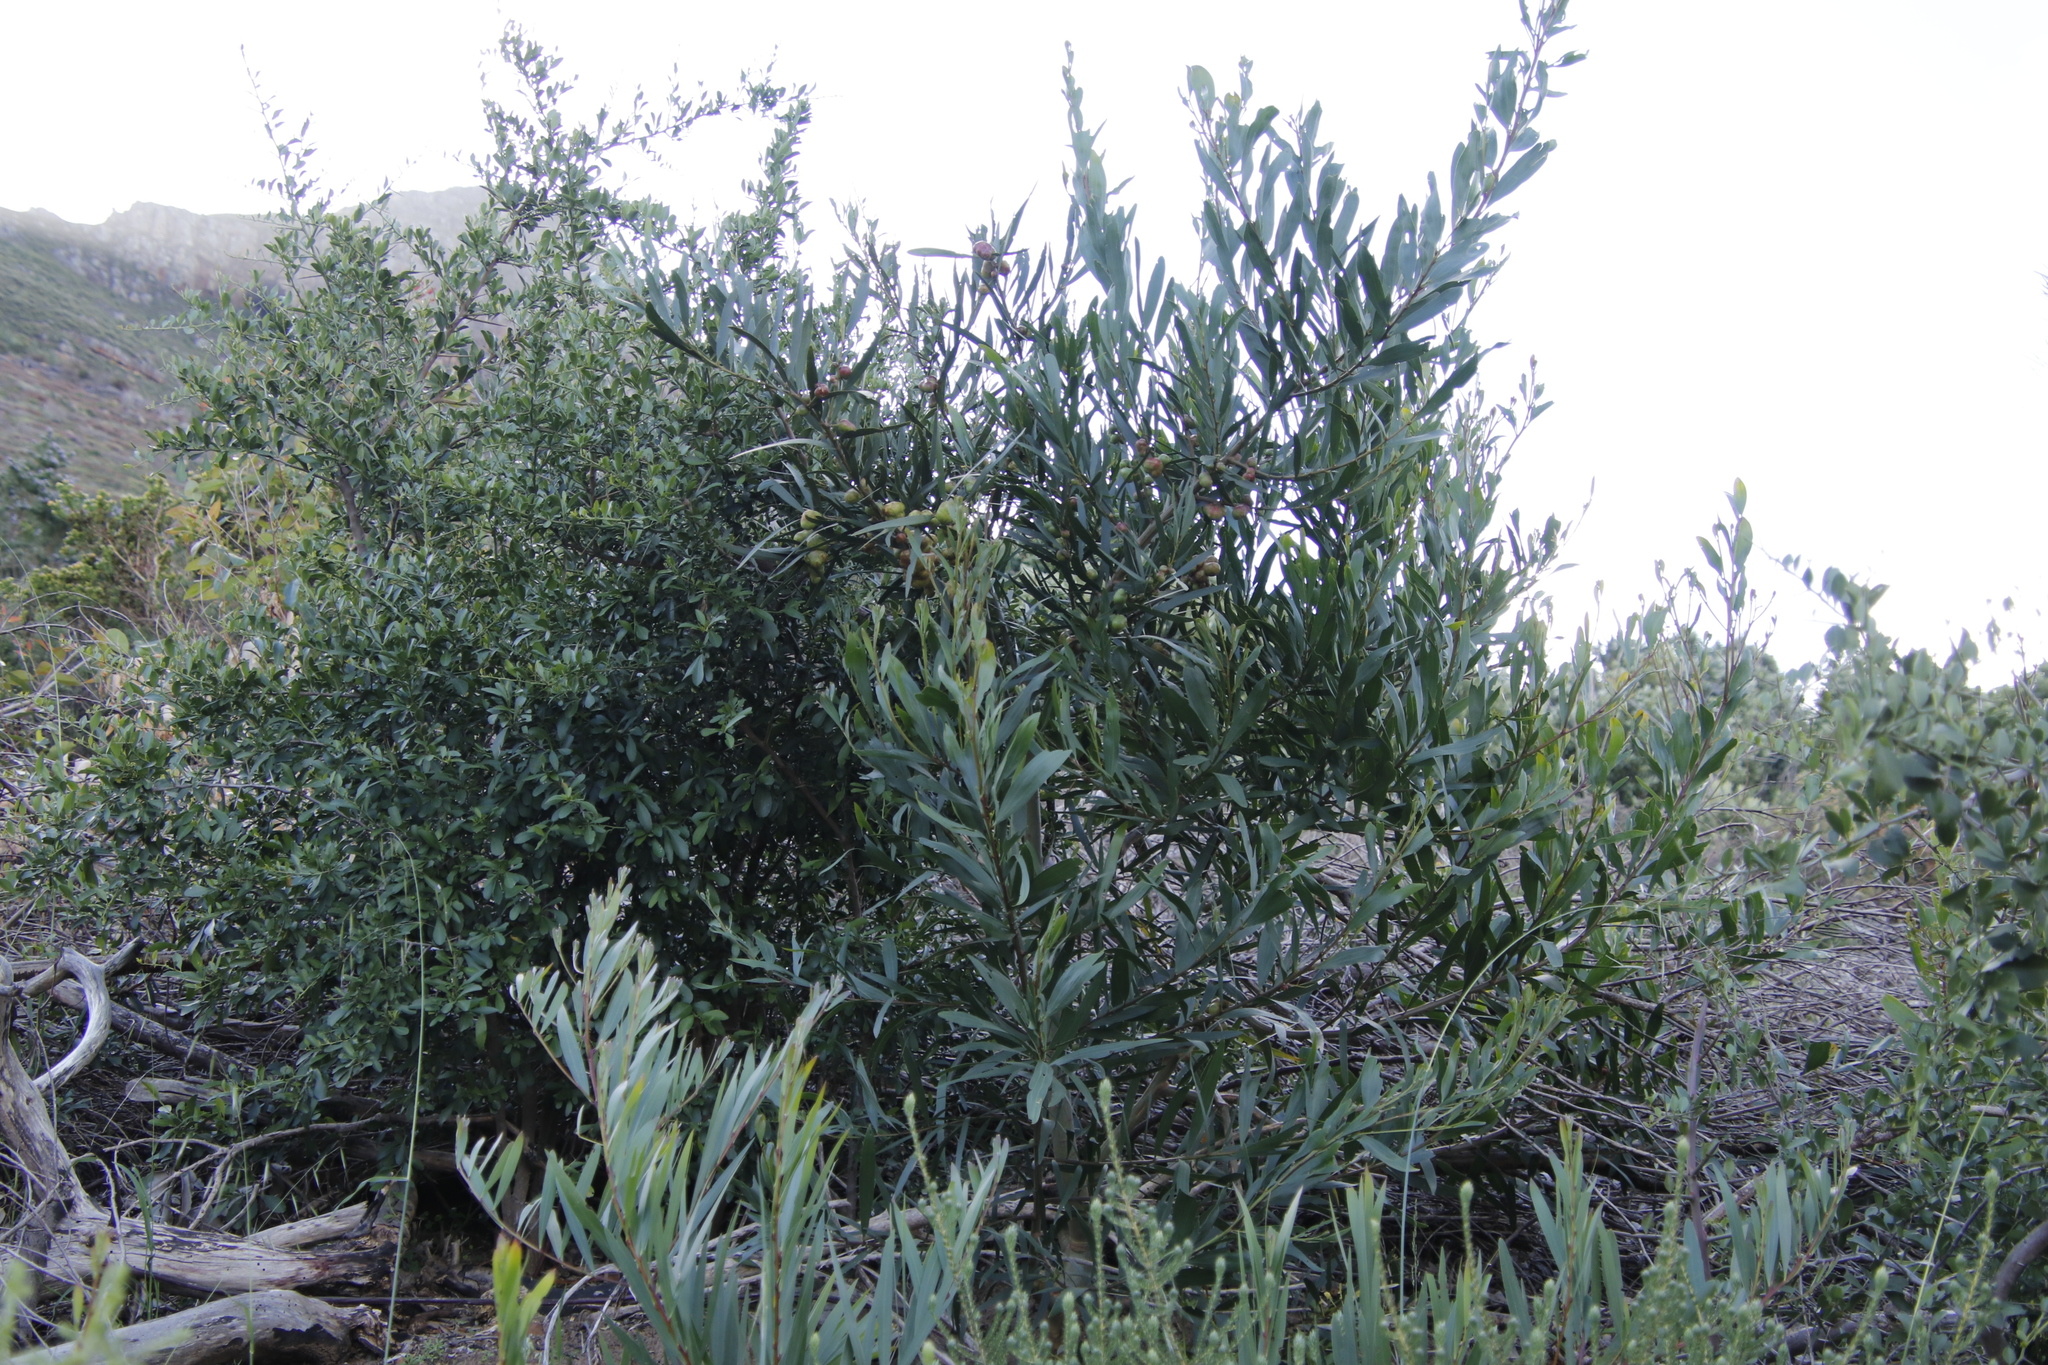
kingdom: Plantae
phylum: Tracheophyta
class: Magnoliopsida
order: Fabales
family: Fabaceae
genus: Acacia
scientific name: Acacia longifolia
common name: Sydney golden wattle
